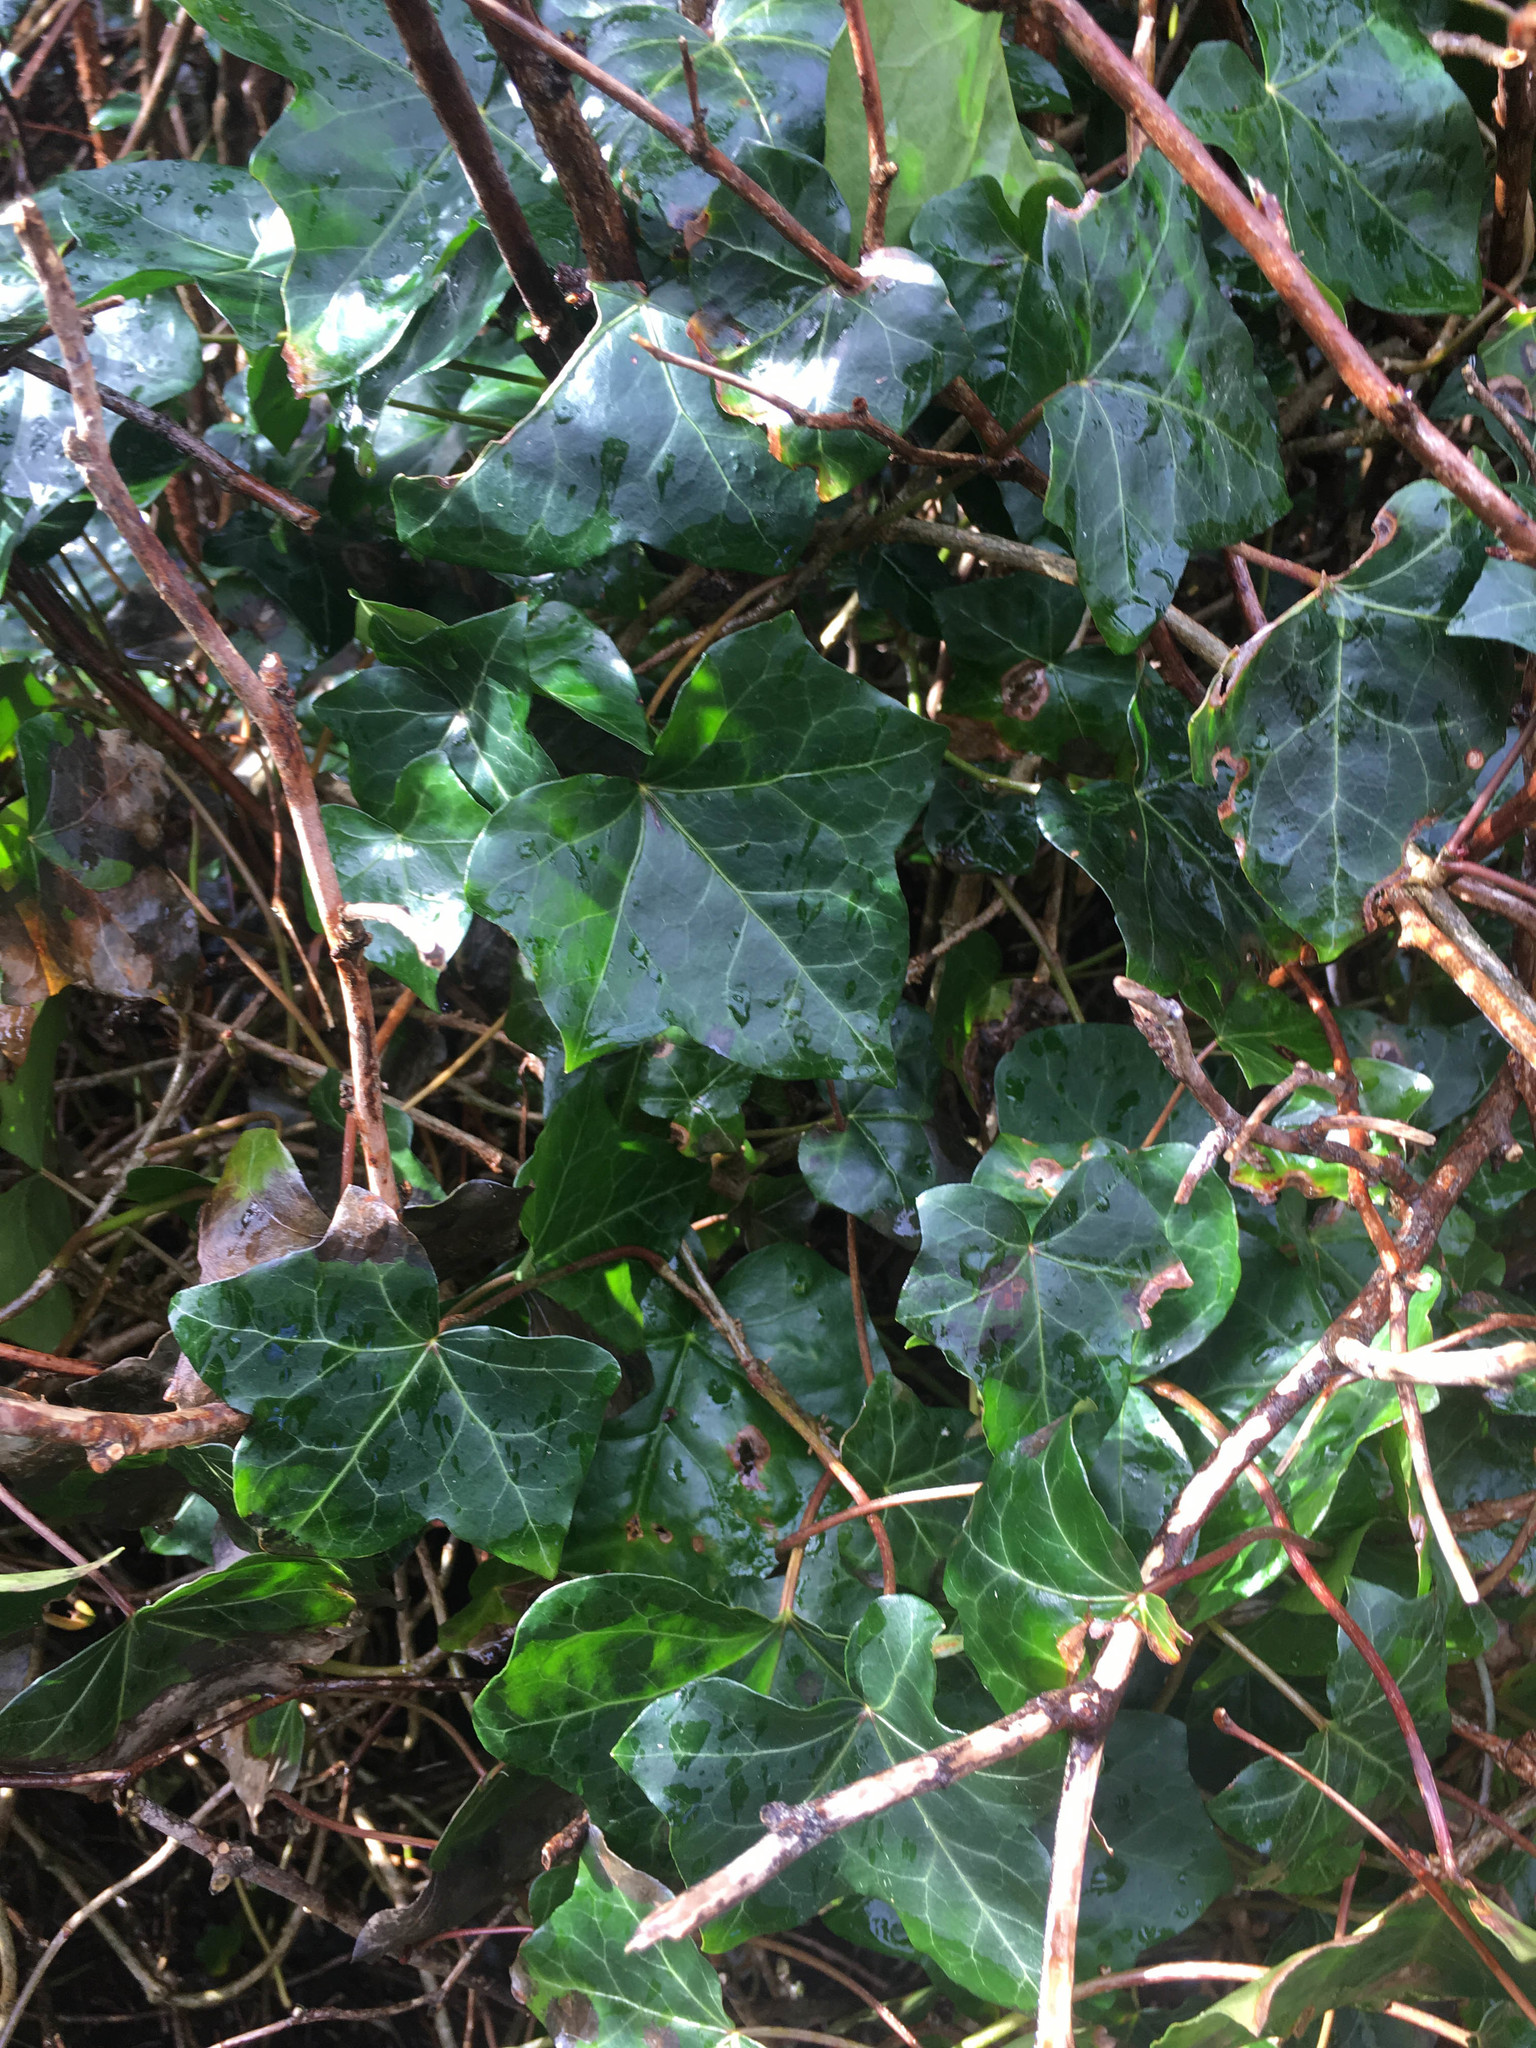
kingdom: Plantae
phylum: Tracheophyta
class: Magnoliopsida
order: Apiales
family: Araliaceae
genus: Hedera
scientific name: Hedera helix
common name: Ivy
